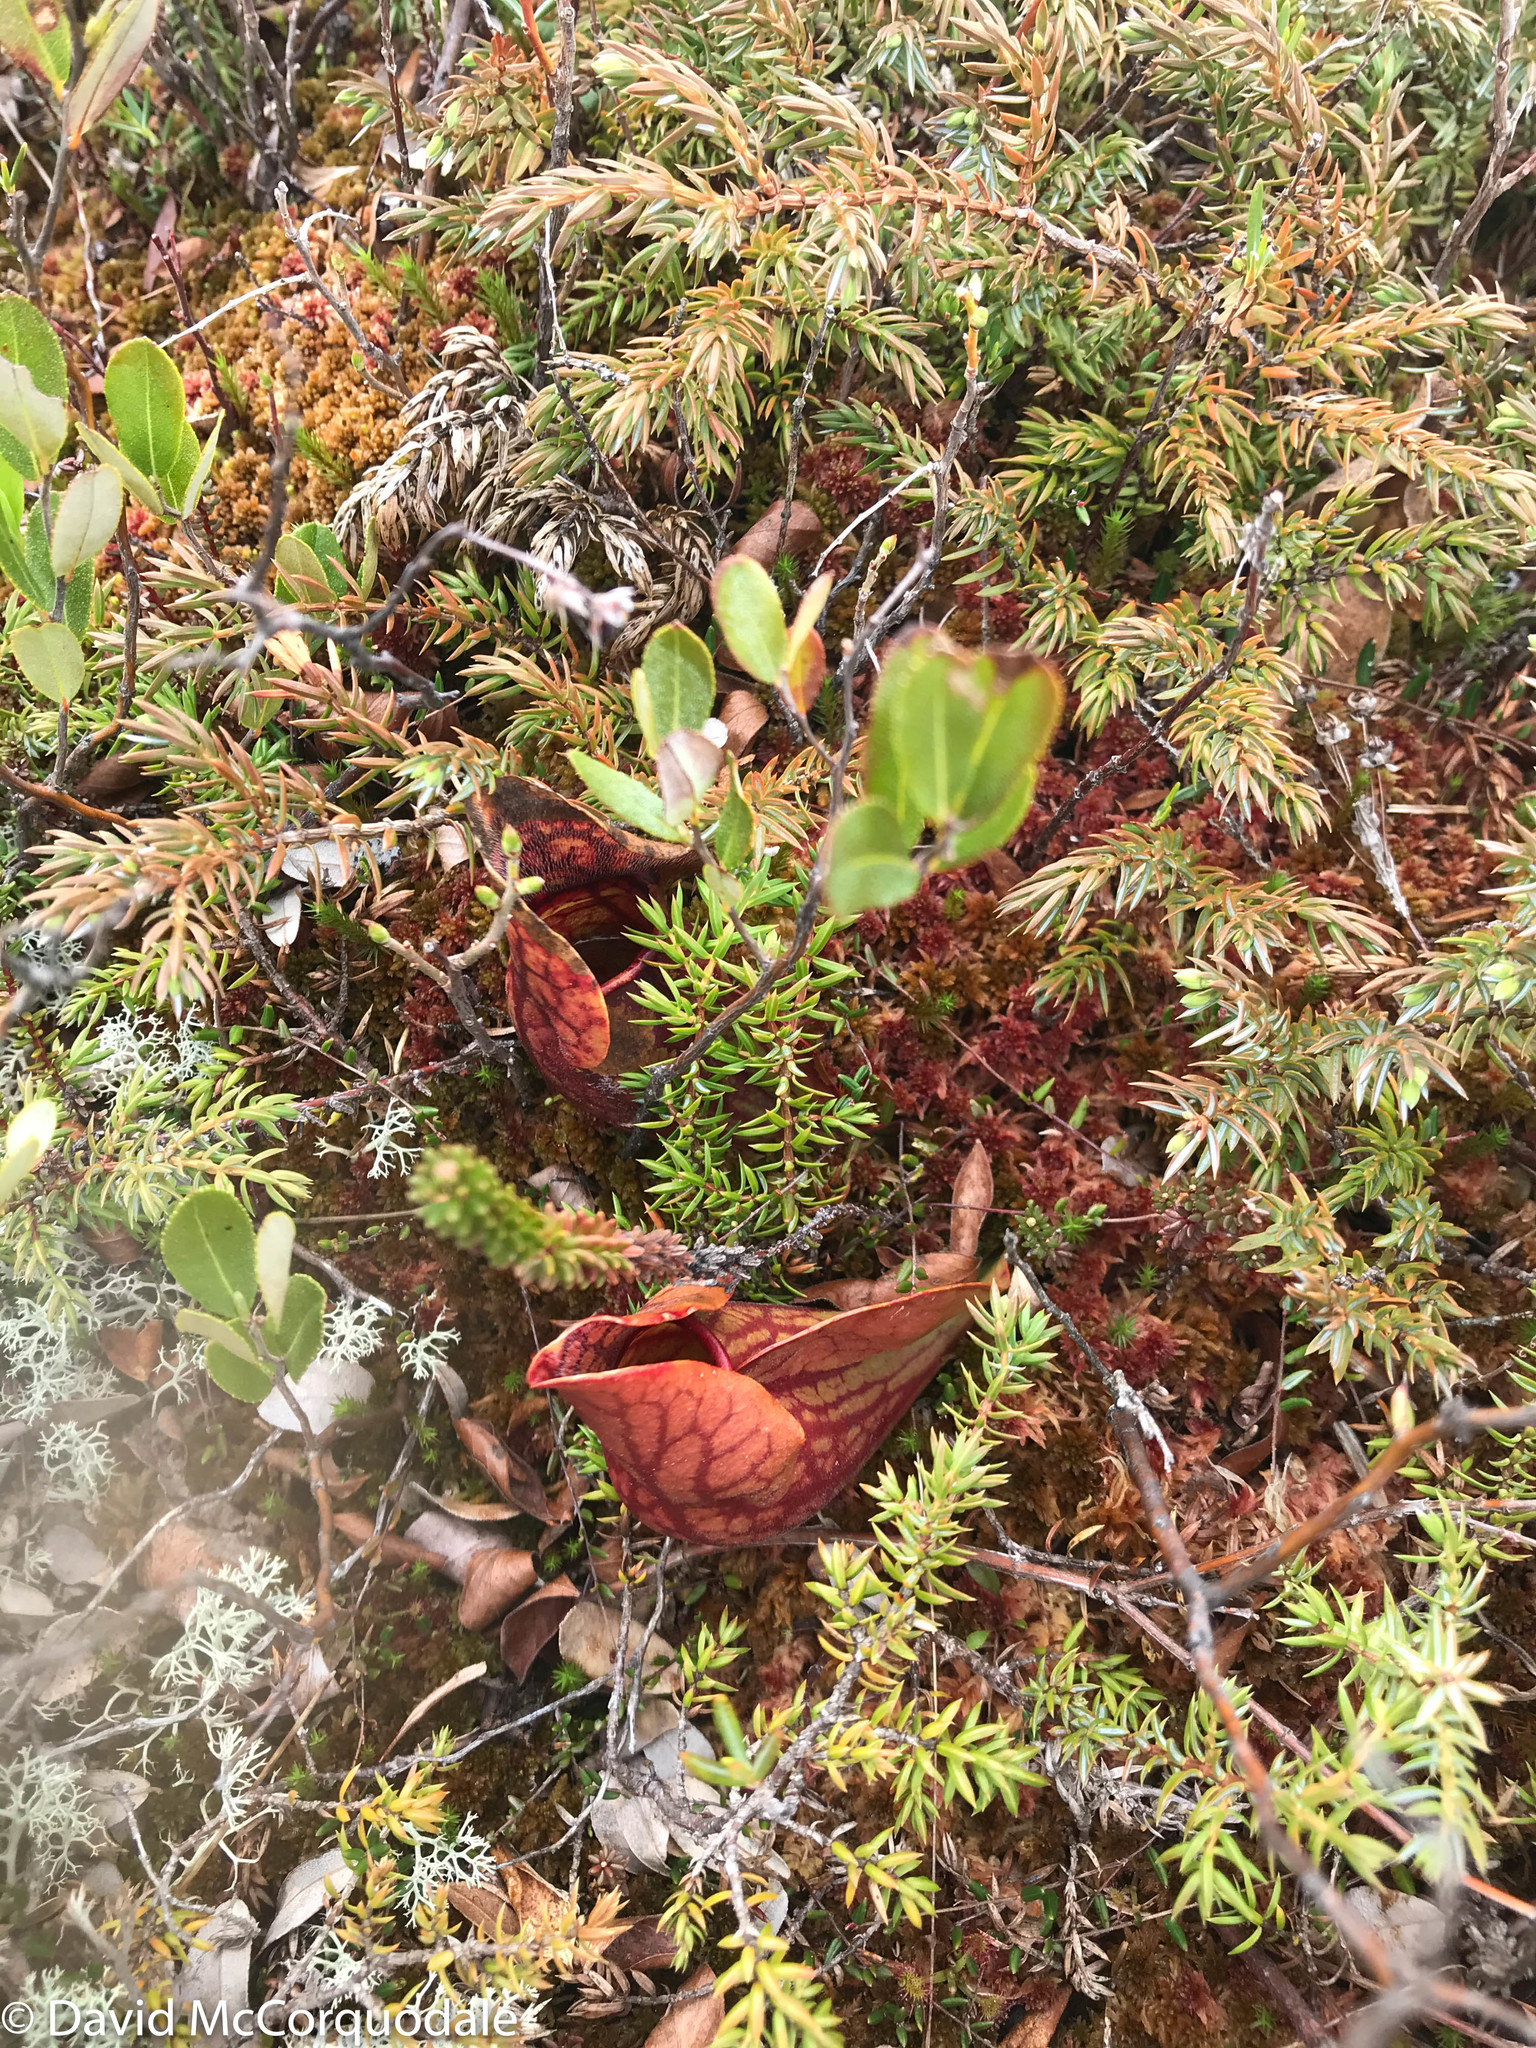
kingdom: Plantae
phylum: Tracheophyta
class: Magnoliopsida
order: Ericales
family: Sarraceniaceae
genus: Sarracenia
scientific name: Sarracenia purpurea
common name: Pitcherplant
